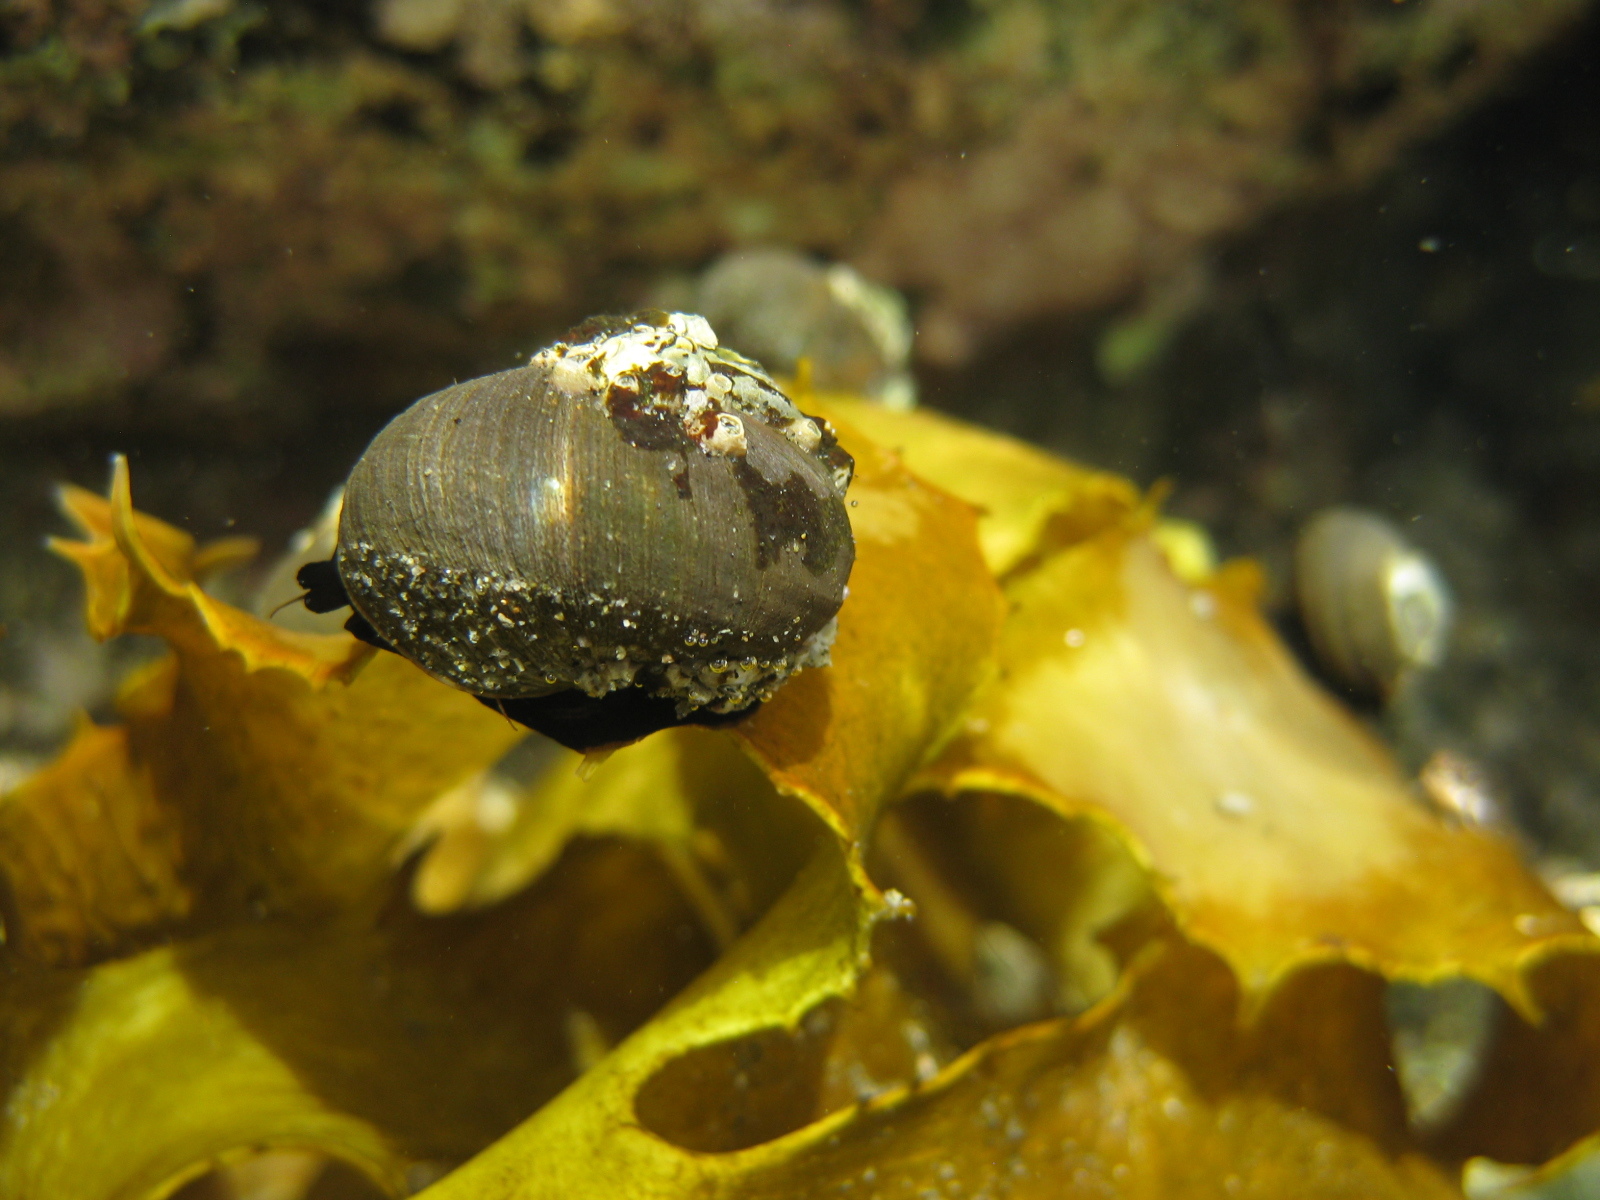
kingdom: Animalia
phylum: Mollusca
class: Gastropoda
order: Trochida
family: Turbinidae
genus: Lunella
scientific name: Lunella smaragda
